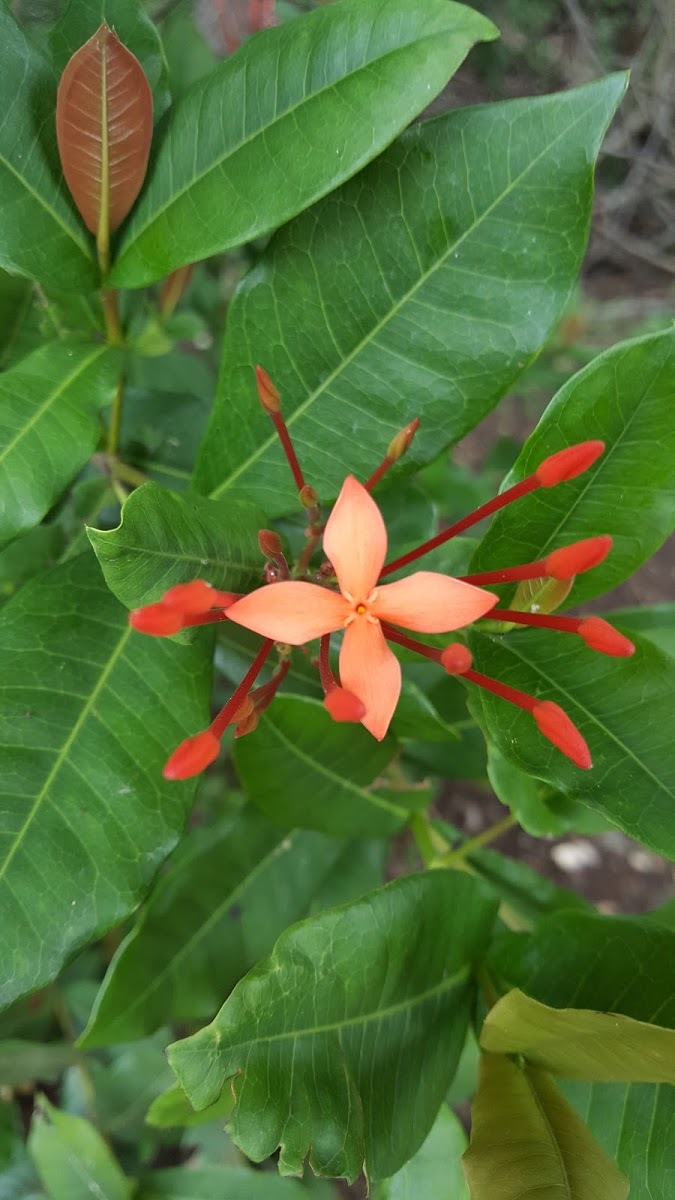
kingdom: Plantae
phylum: Tracheophyta
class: Magnoliopsida
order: Gentianales
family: Rubiaceae
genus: Ixora
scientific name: Ixora coccinea
